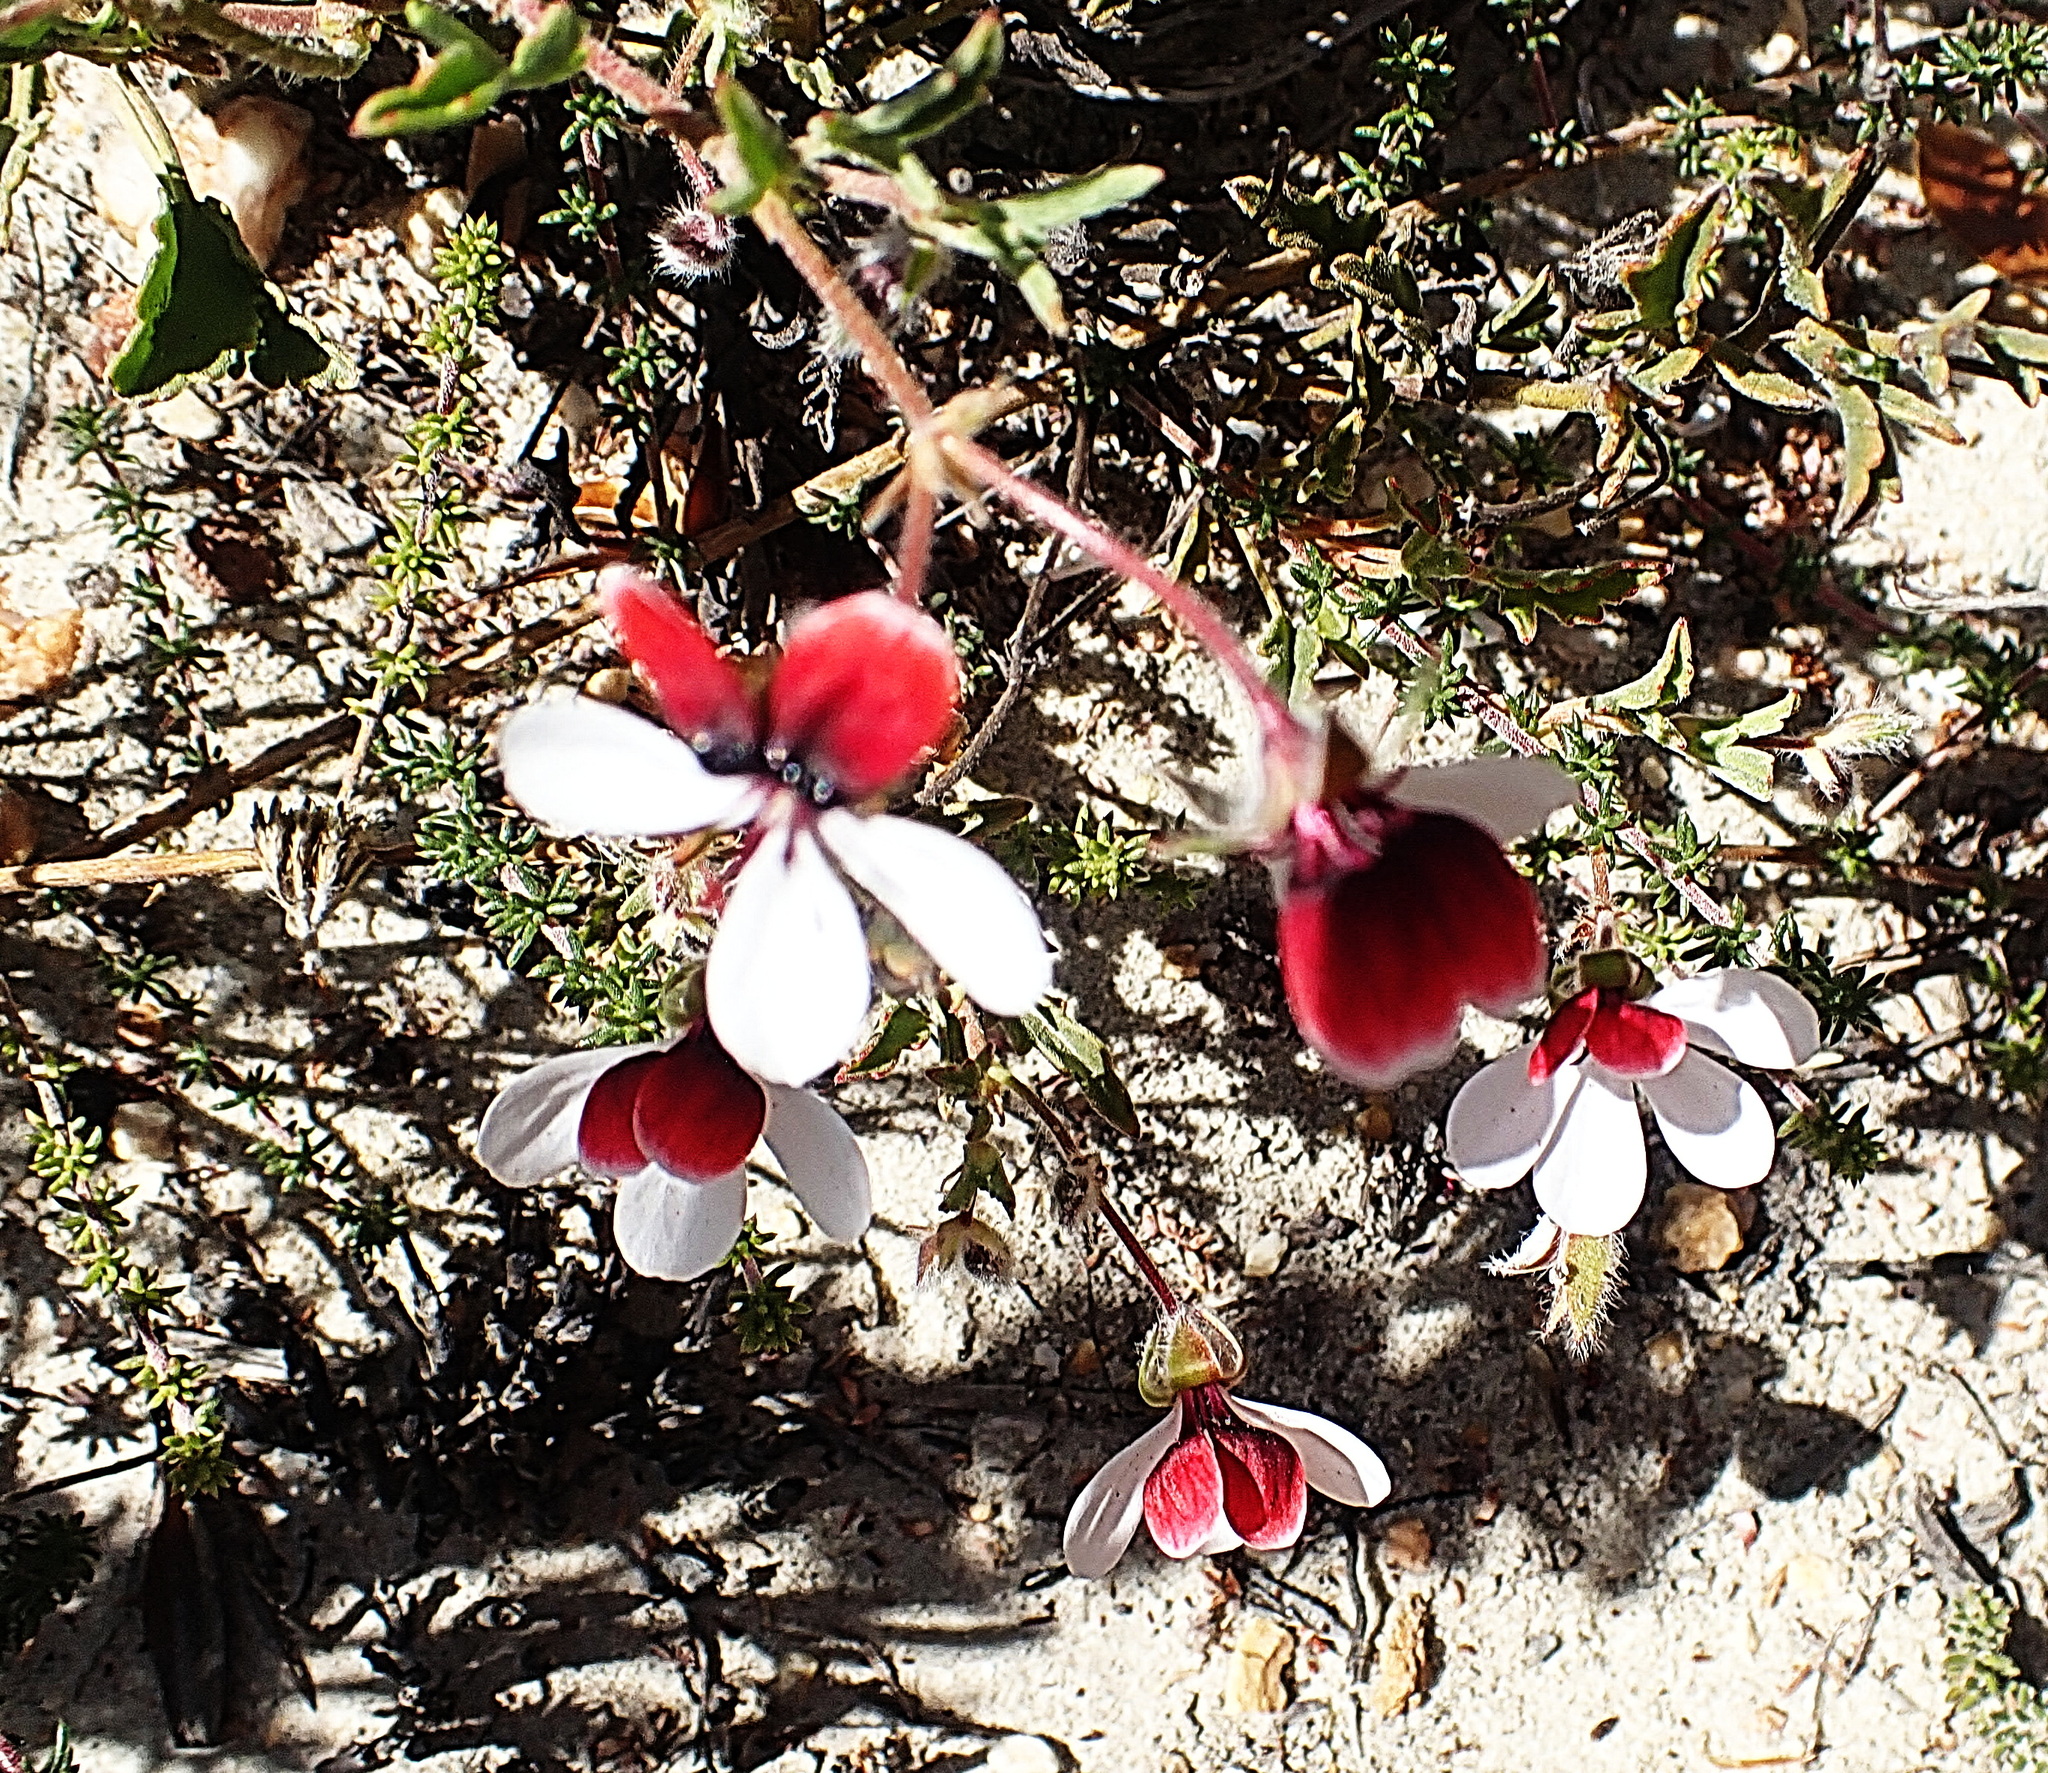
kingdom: Plantae
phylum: Tracheophyta
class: Magnoliopsida
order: Geraniales
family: Geraniaceae
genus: Pelargonium
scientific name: Pelargonium tricolor
